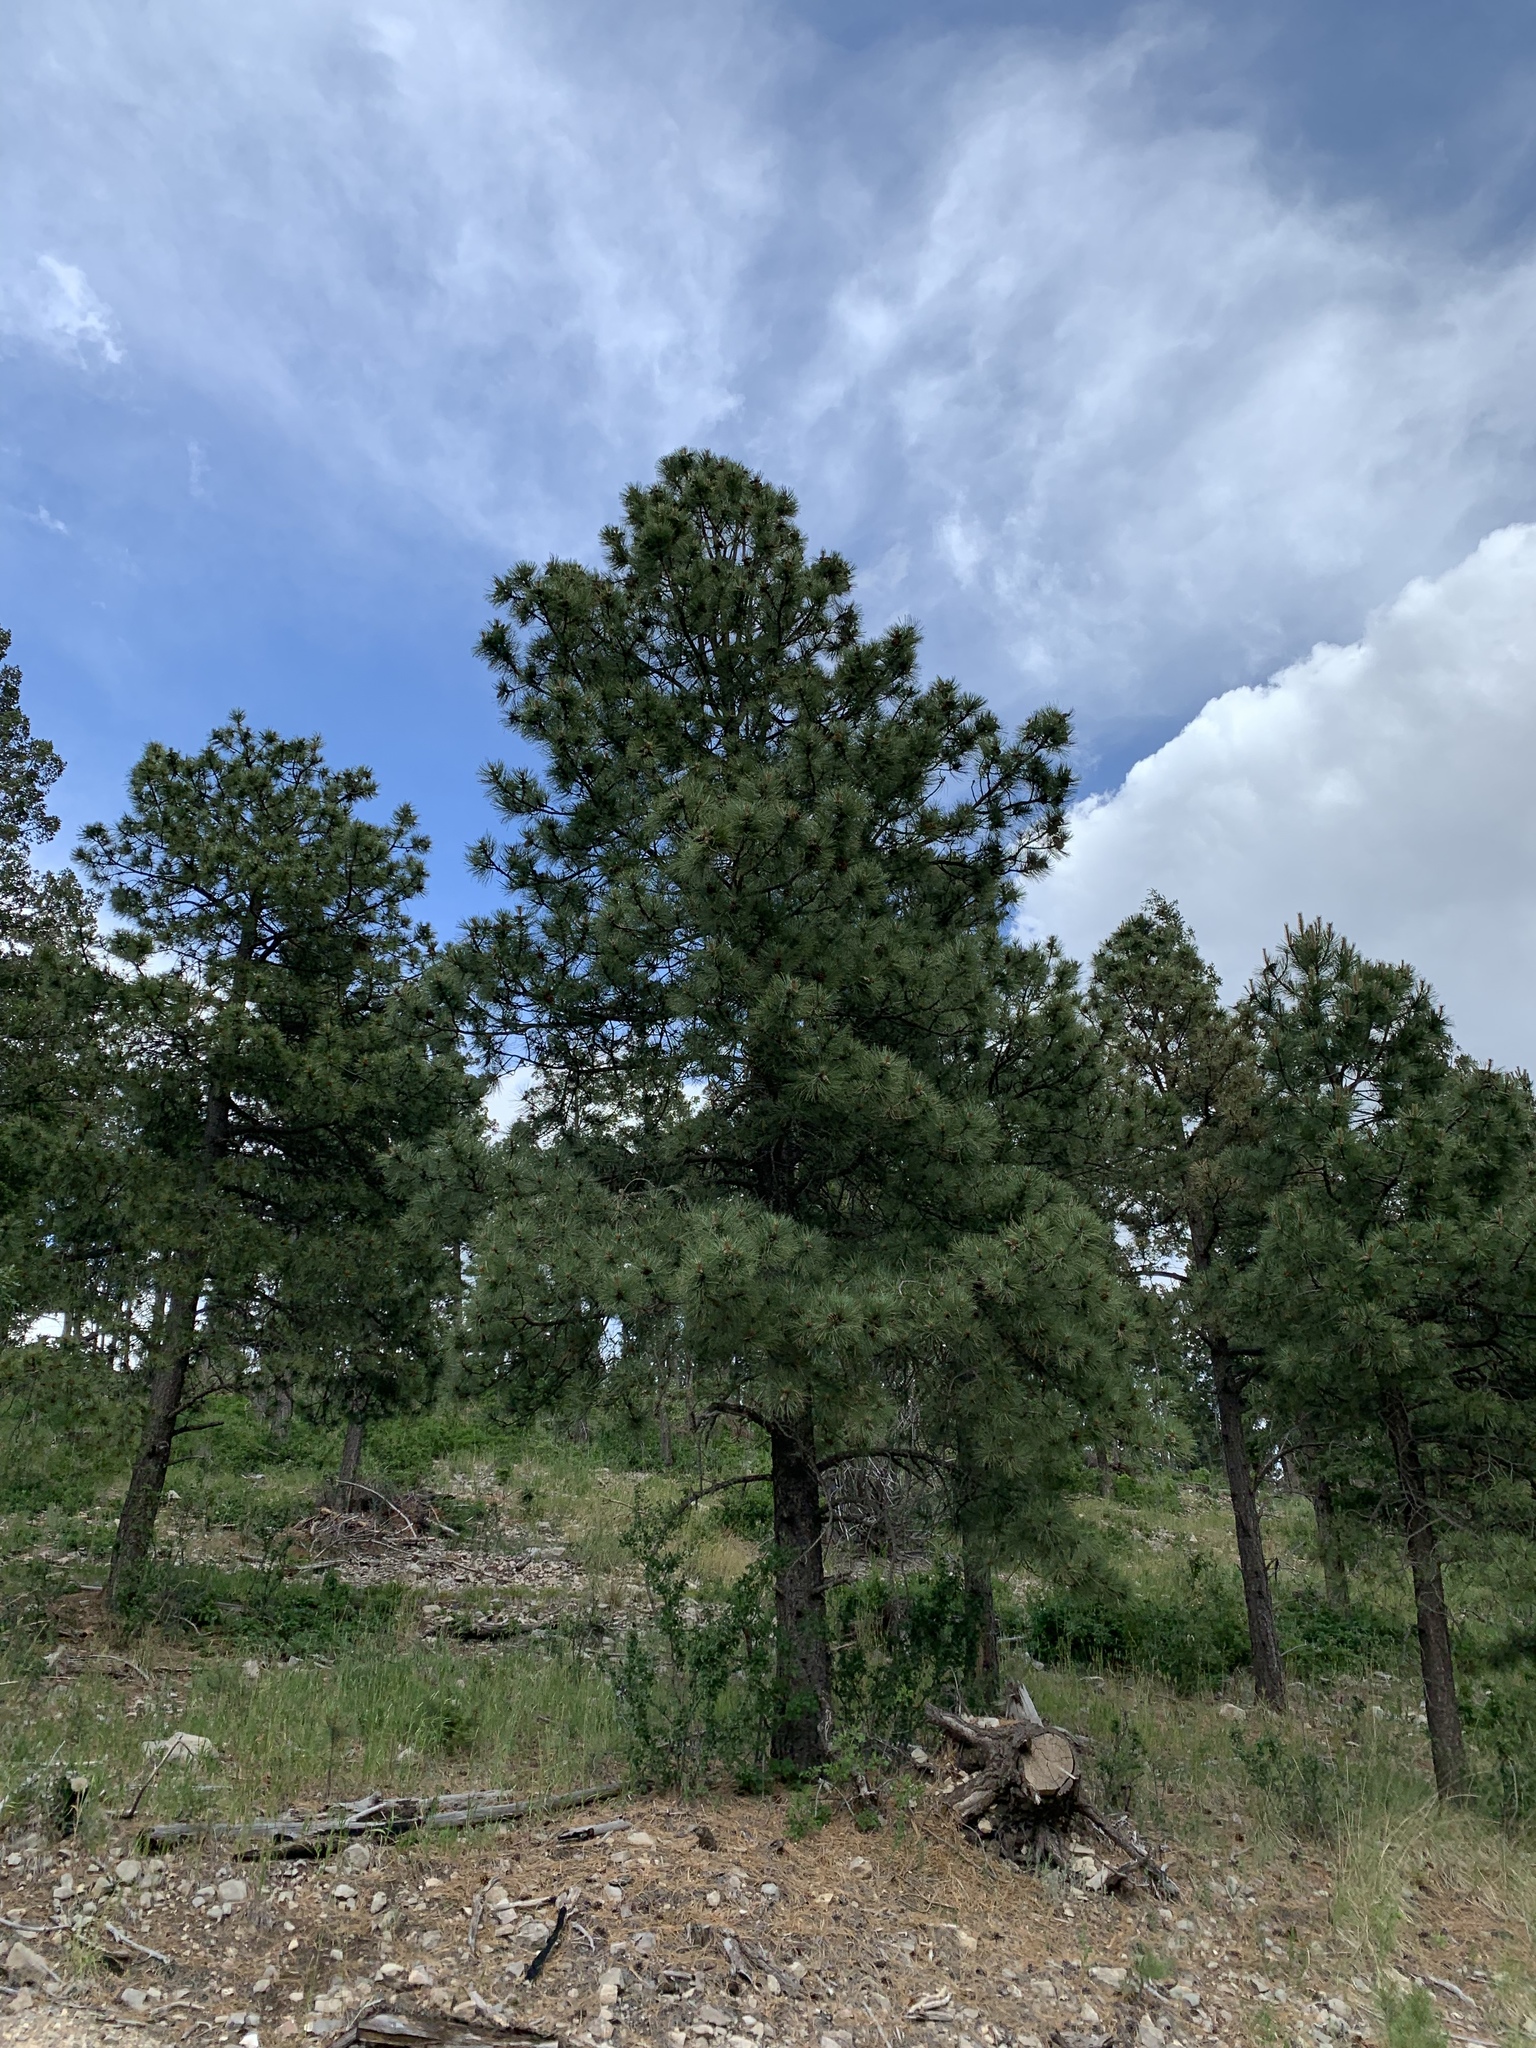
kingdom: Plantae
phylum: Tracheophyta
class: Pinopsida
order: Pinales
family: Pinaceae
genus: Pinus
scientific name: Pinus ponderosa
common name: Western yellow-pine
